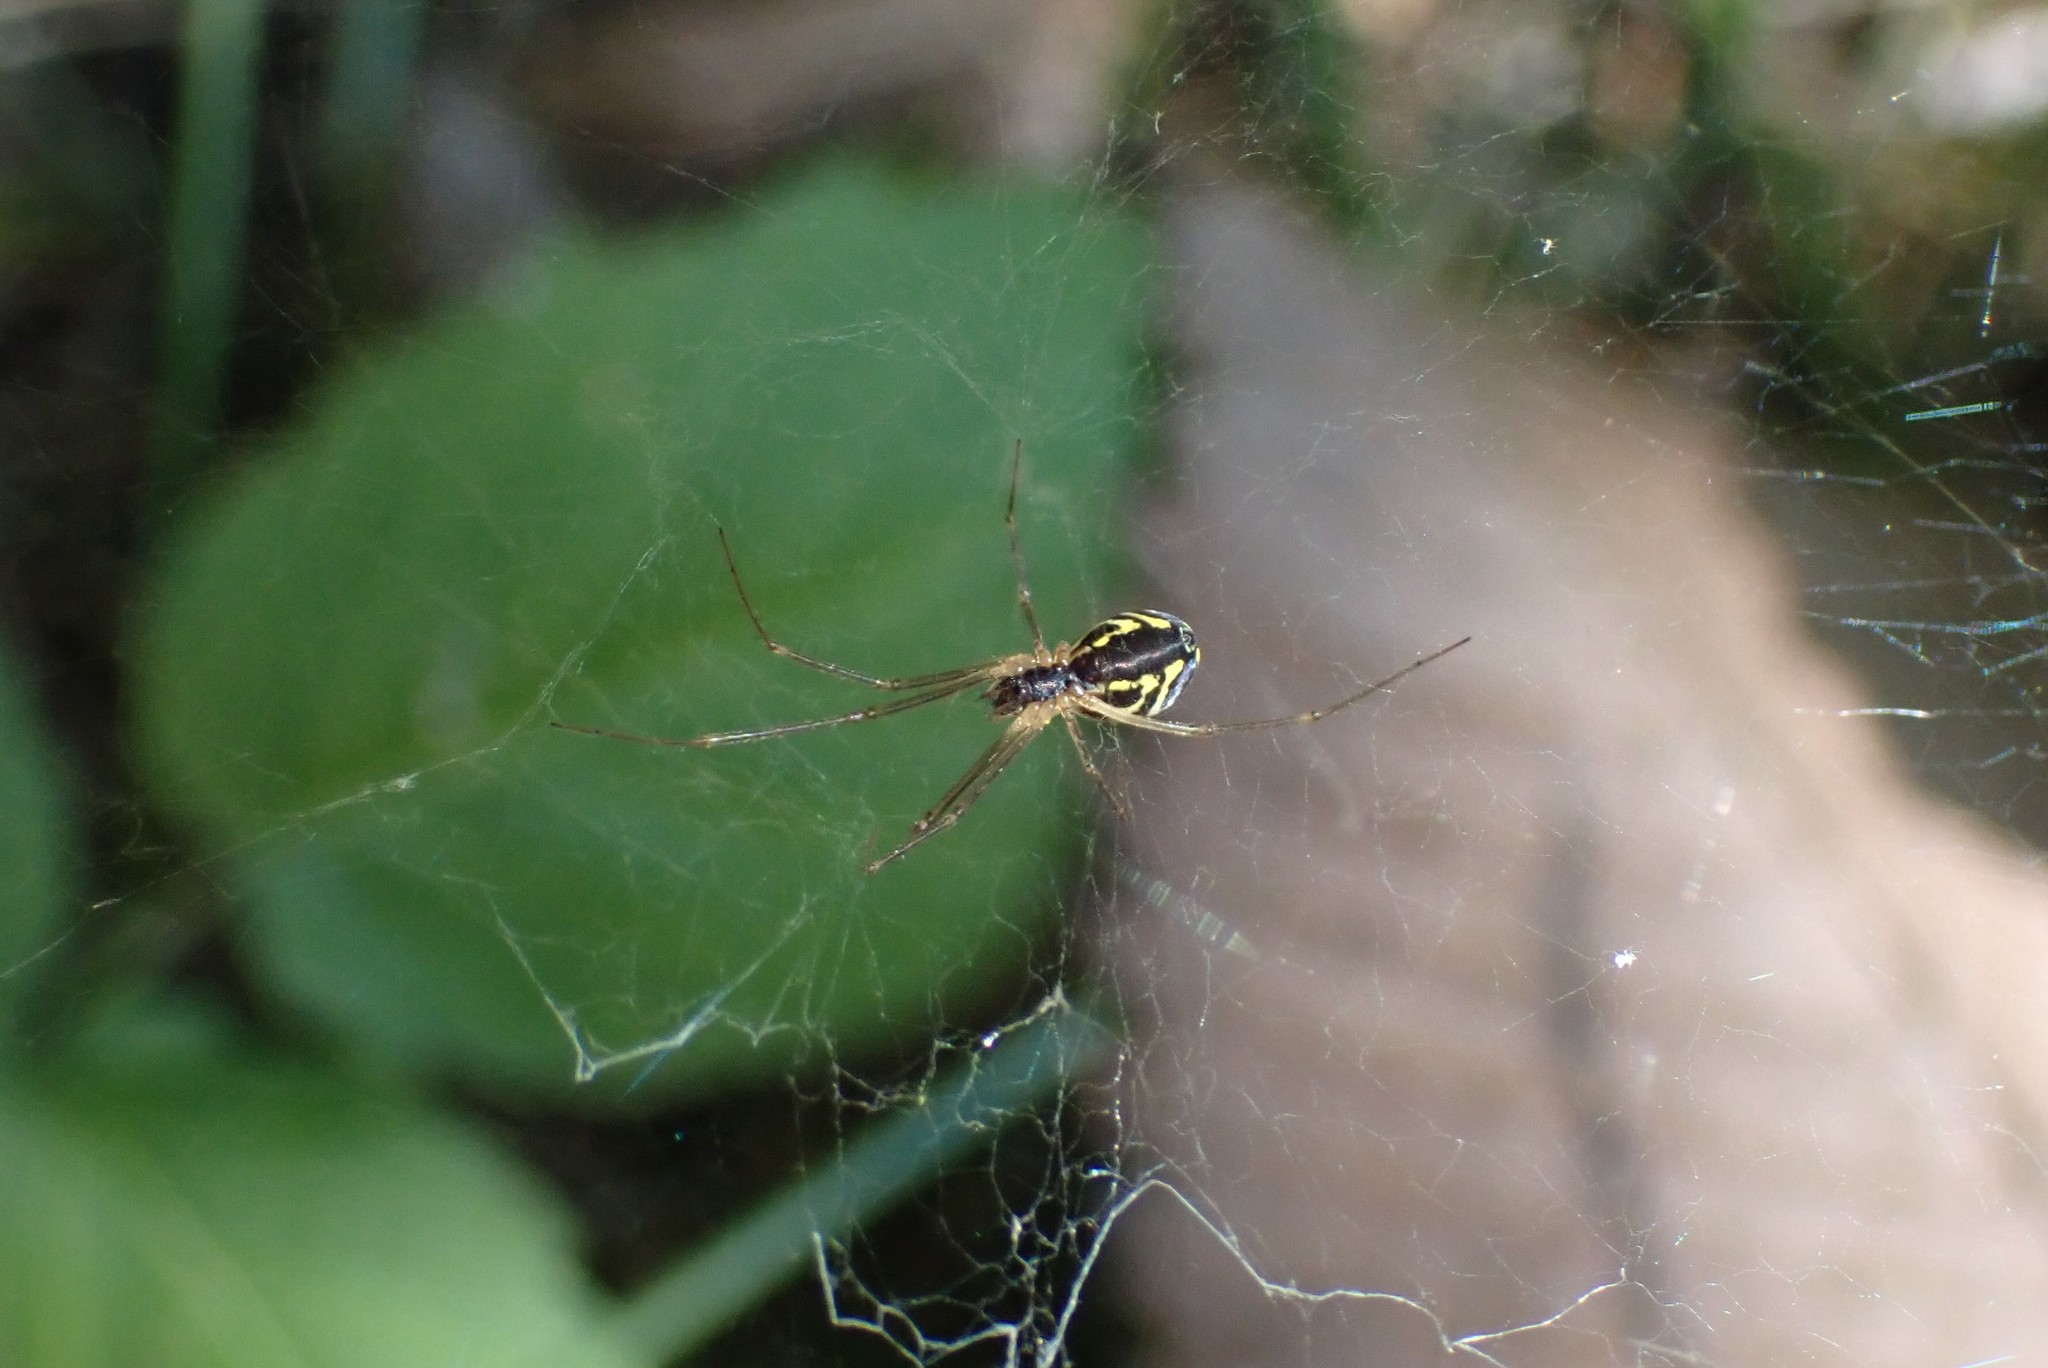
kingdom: Animalia
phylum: Arthropoda
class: Arachnida
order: Araneae
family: Linyphiidae
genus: Neriene
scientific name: Neriene radiata
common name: Filmy dome spider
